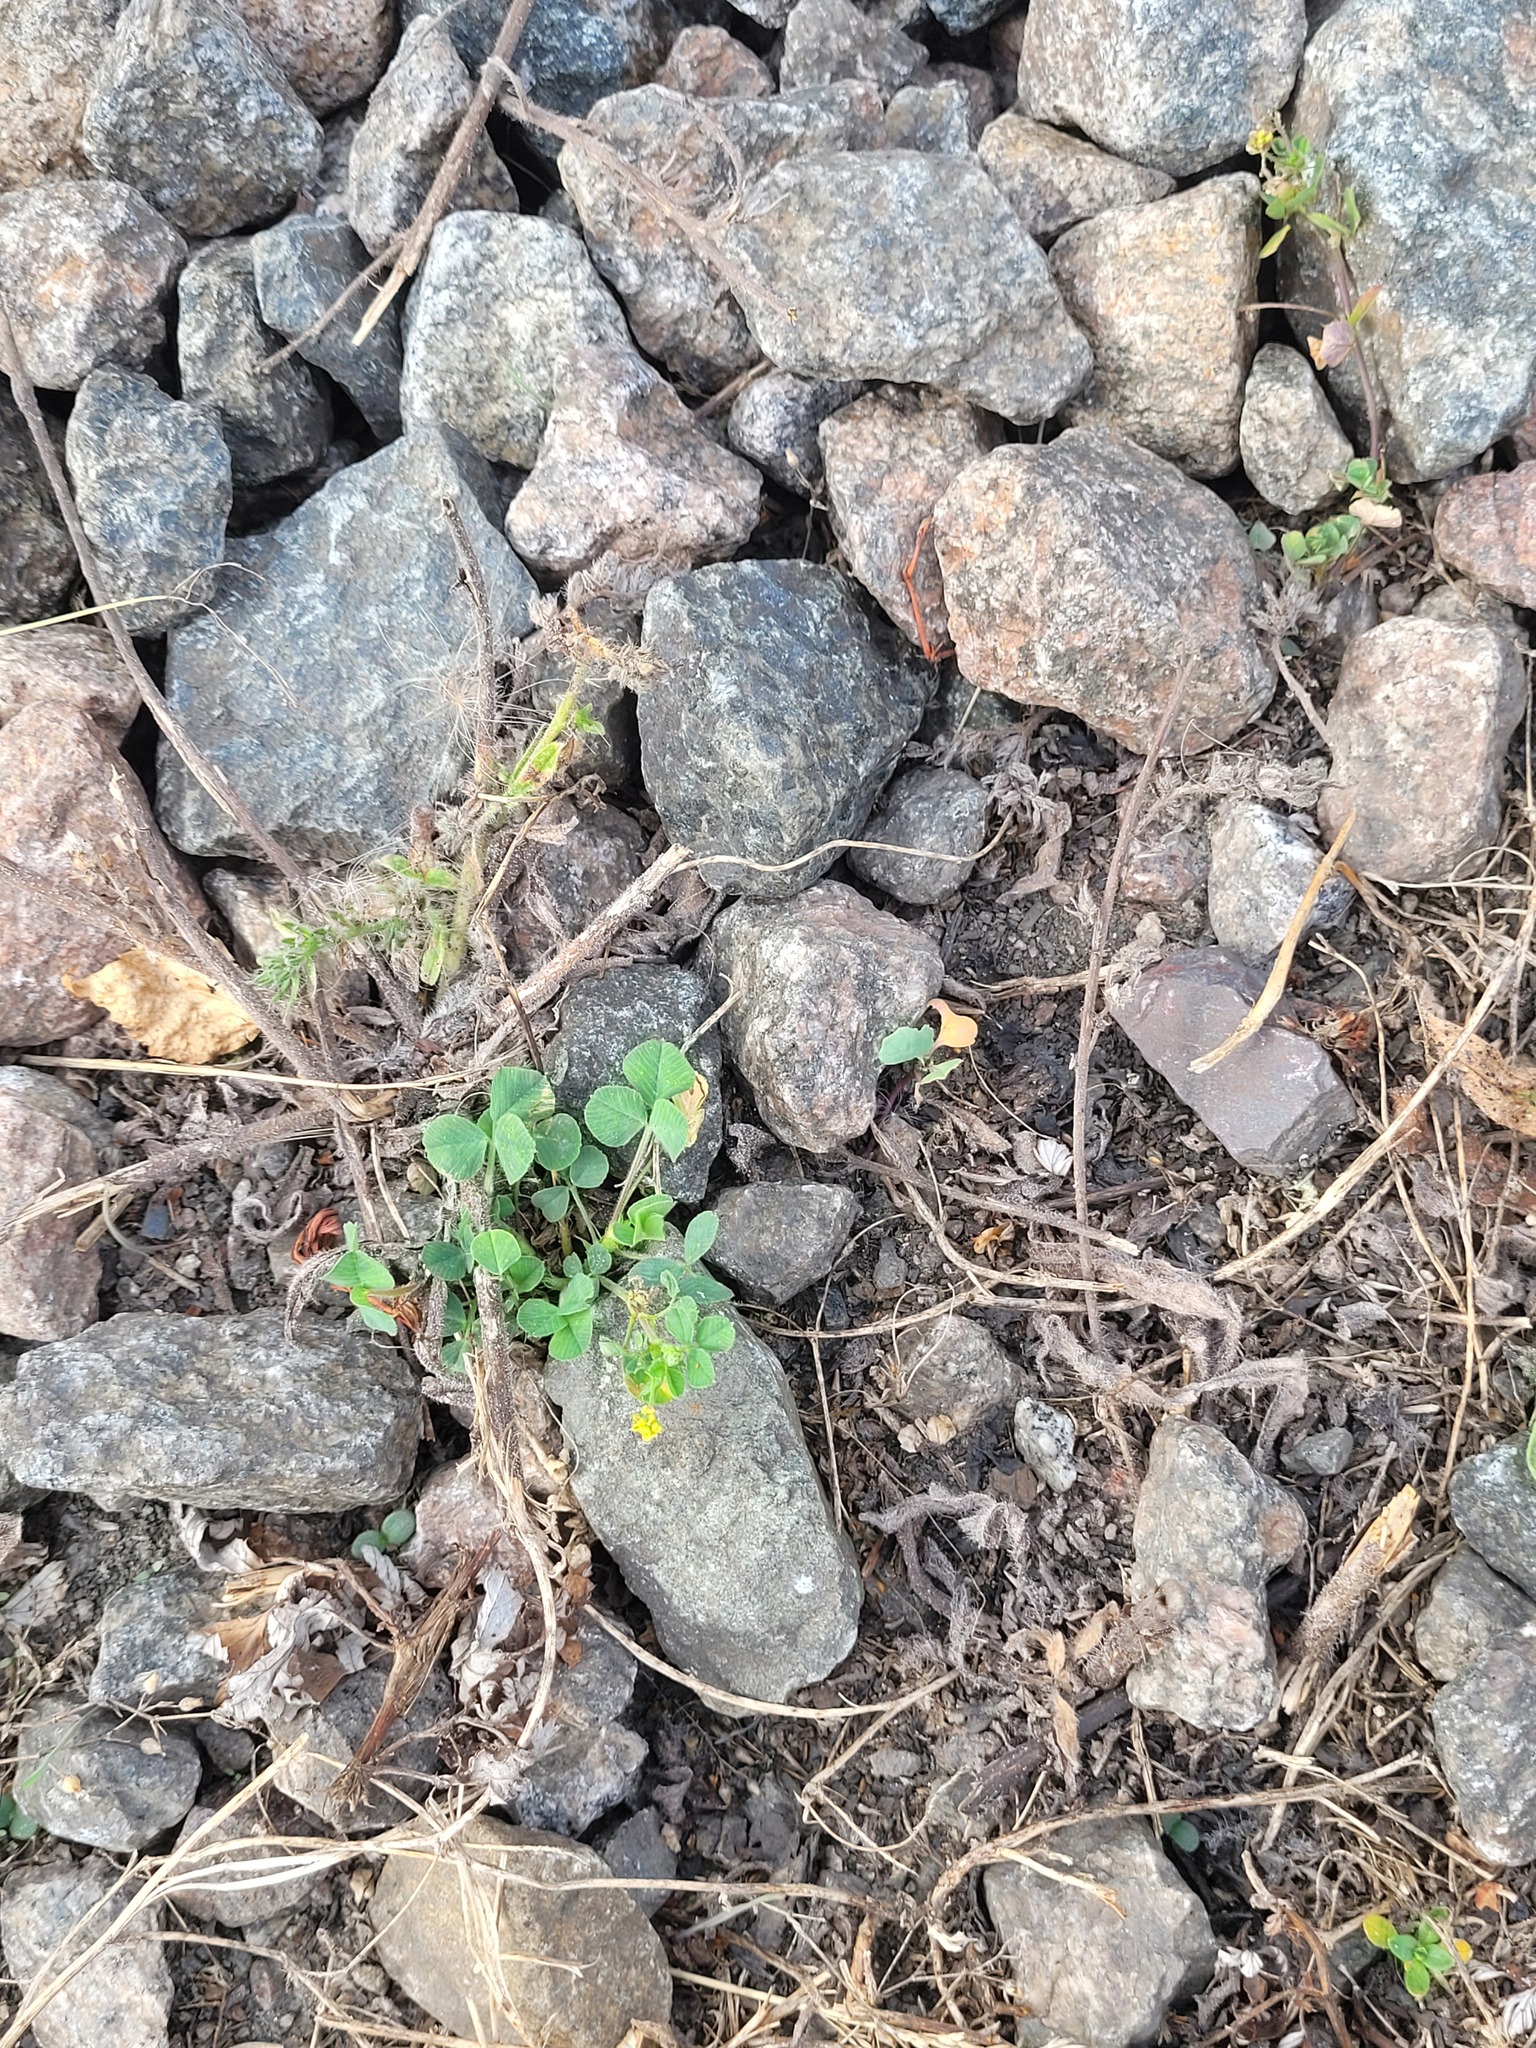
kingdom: Plantae
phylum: Tracheophyta
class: Magnoliopsida
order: Fabales
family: Fabaceae
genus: Medicago
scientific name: Medicago lupulina
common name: Black medick
